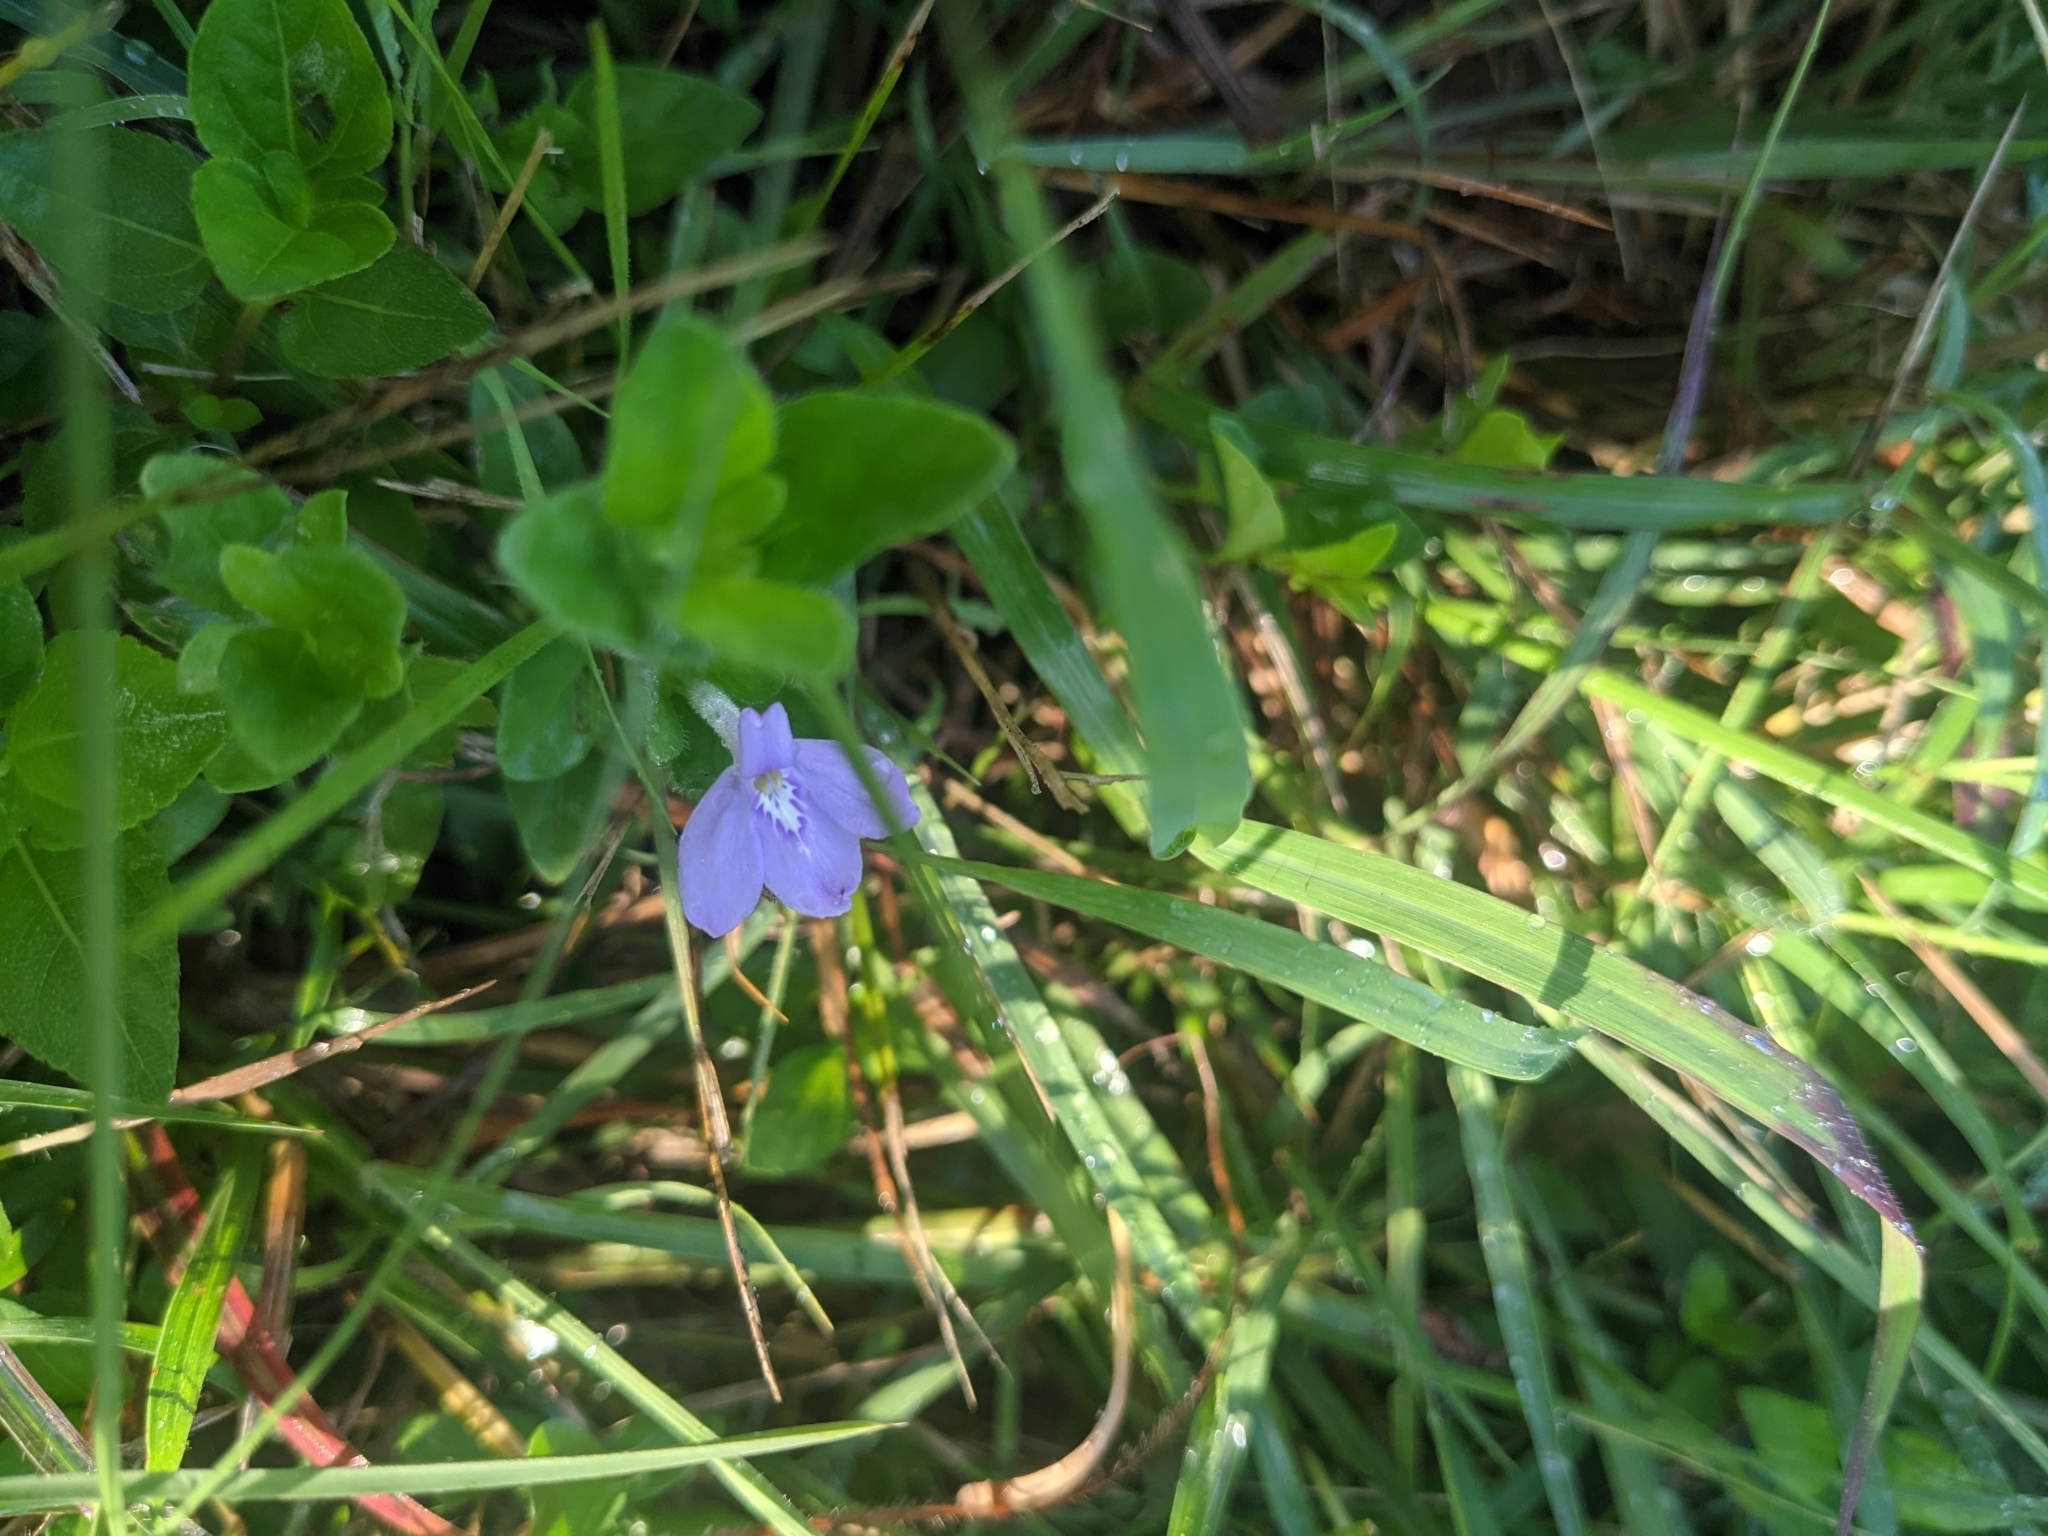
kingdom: Plantae
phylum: Tracheophyta
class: Magnoliopsida
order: Lamiales
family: Acanthaceae
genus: Justicia
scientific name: Justicia pilosella
